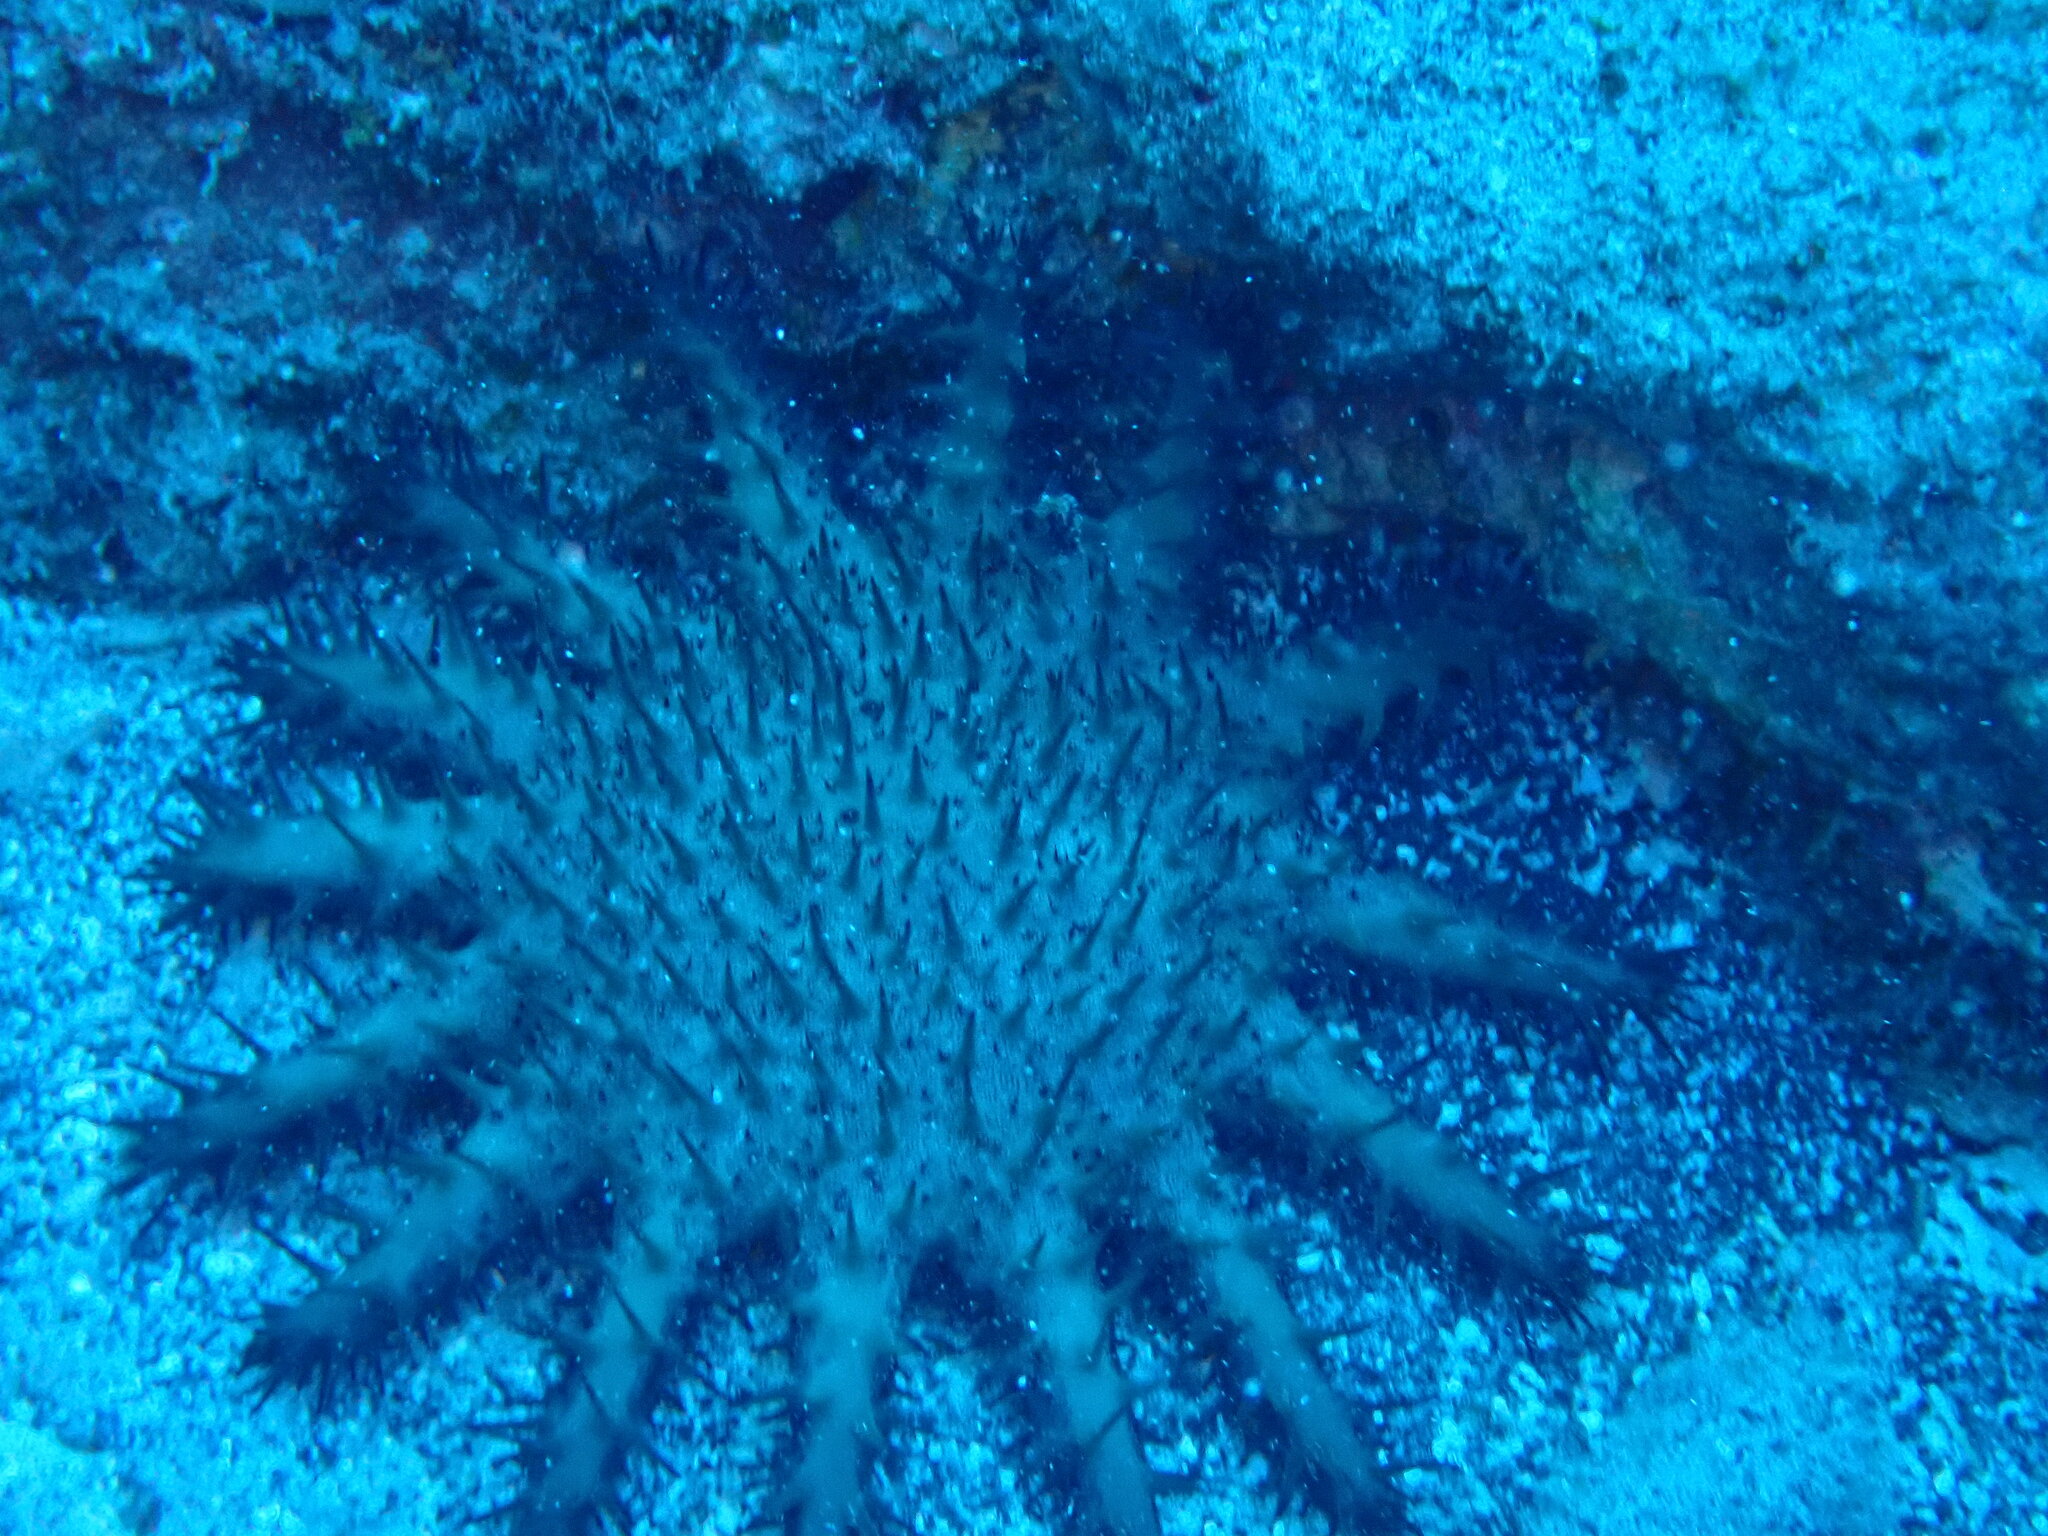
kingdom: Animalia
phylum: Echinodermata
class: Asteroidea
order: Valvatida
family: Acanthasteridae
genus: Acanthaster
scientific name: Acanthaster planci
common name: Crown-of-thorns
